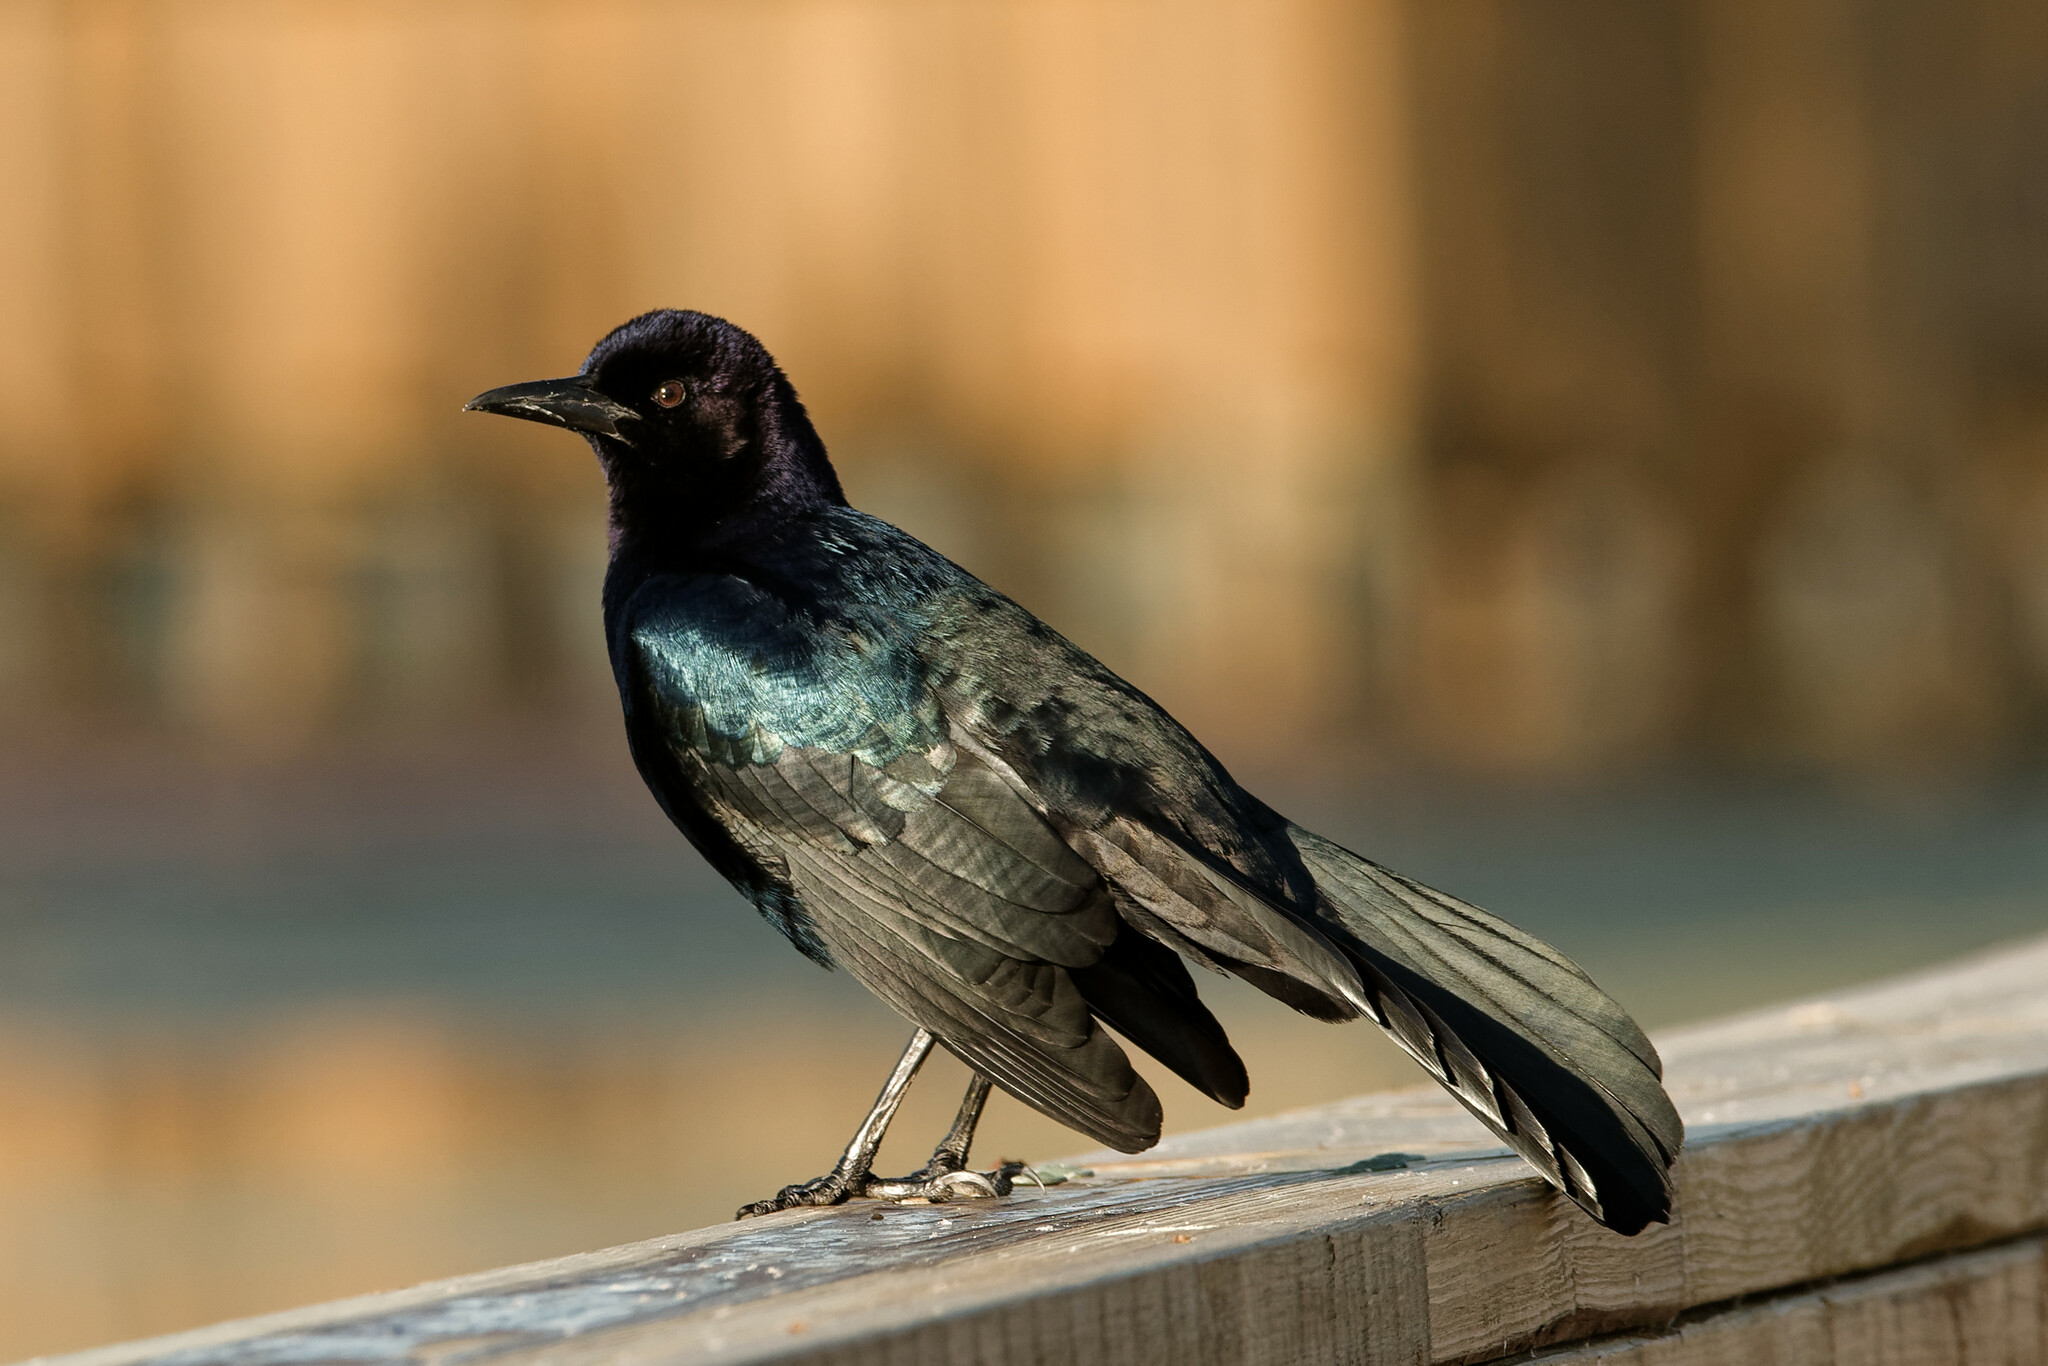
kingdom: Animalia
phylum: Chordata
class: Aves
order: Passeriformes
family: Icteridae
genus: Quiscalus
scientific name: Quiscalus major
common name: Boat-tailed grackle
